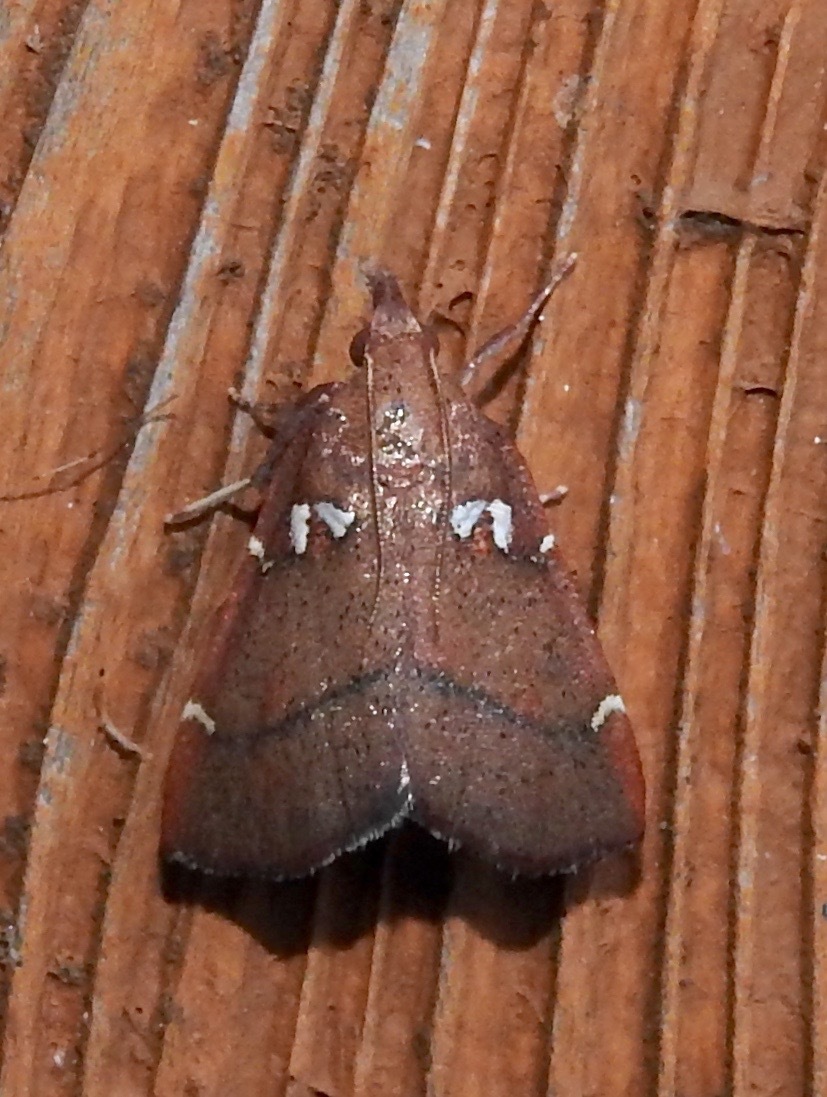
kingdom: Animalia
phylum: Arthropoda
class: Insecta
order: Lepidoptera
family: Pyralidae
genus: Lepidomys
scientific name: Lepidomys irrenosa
